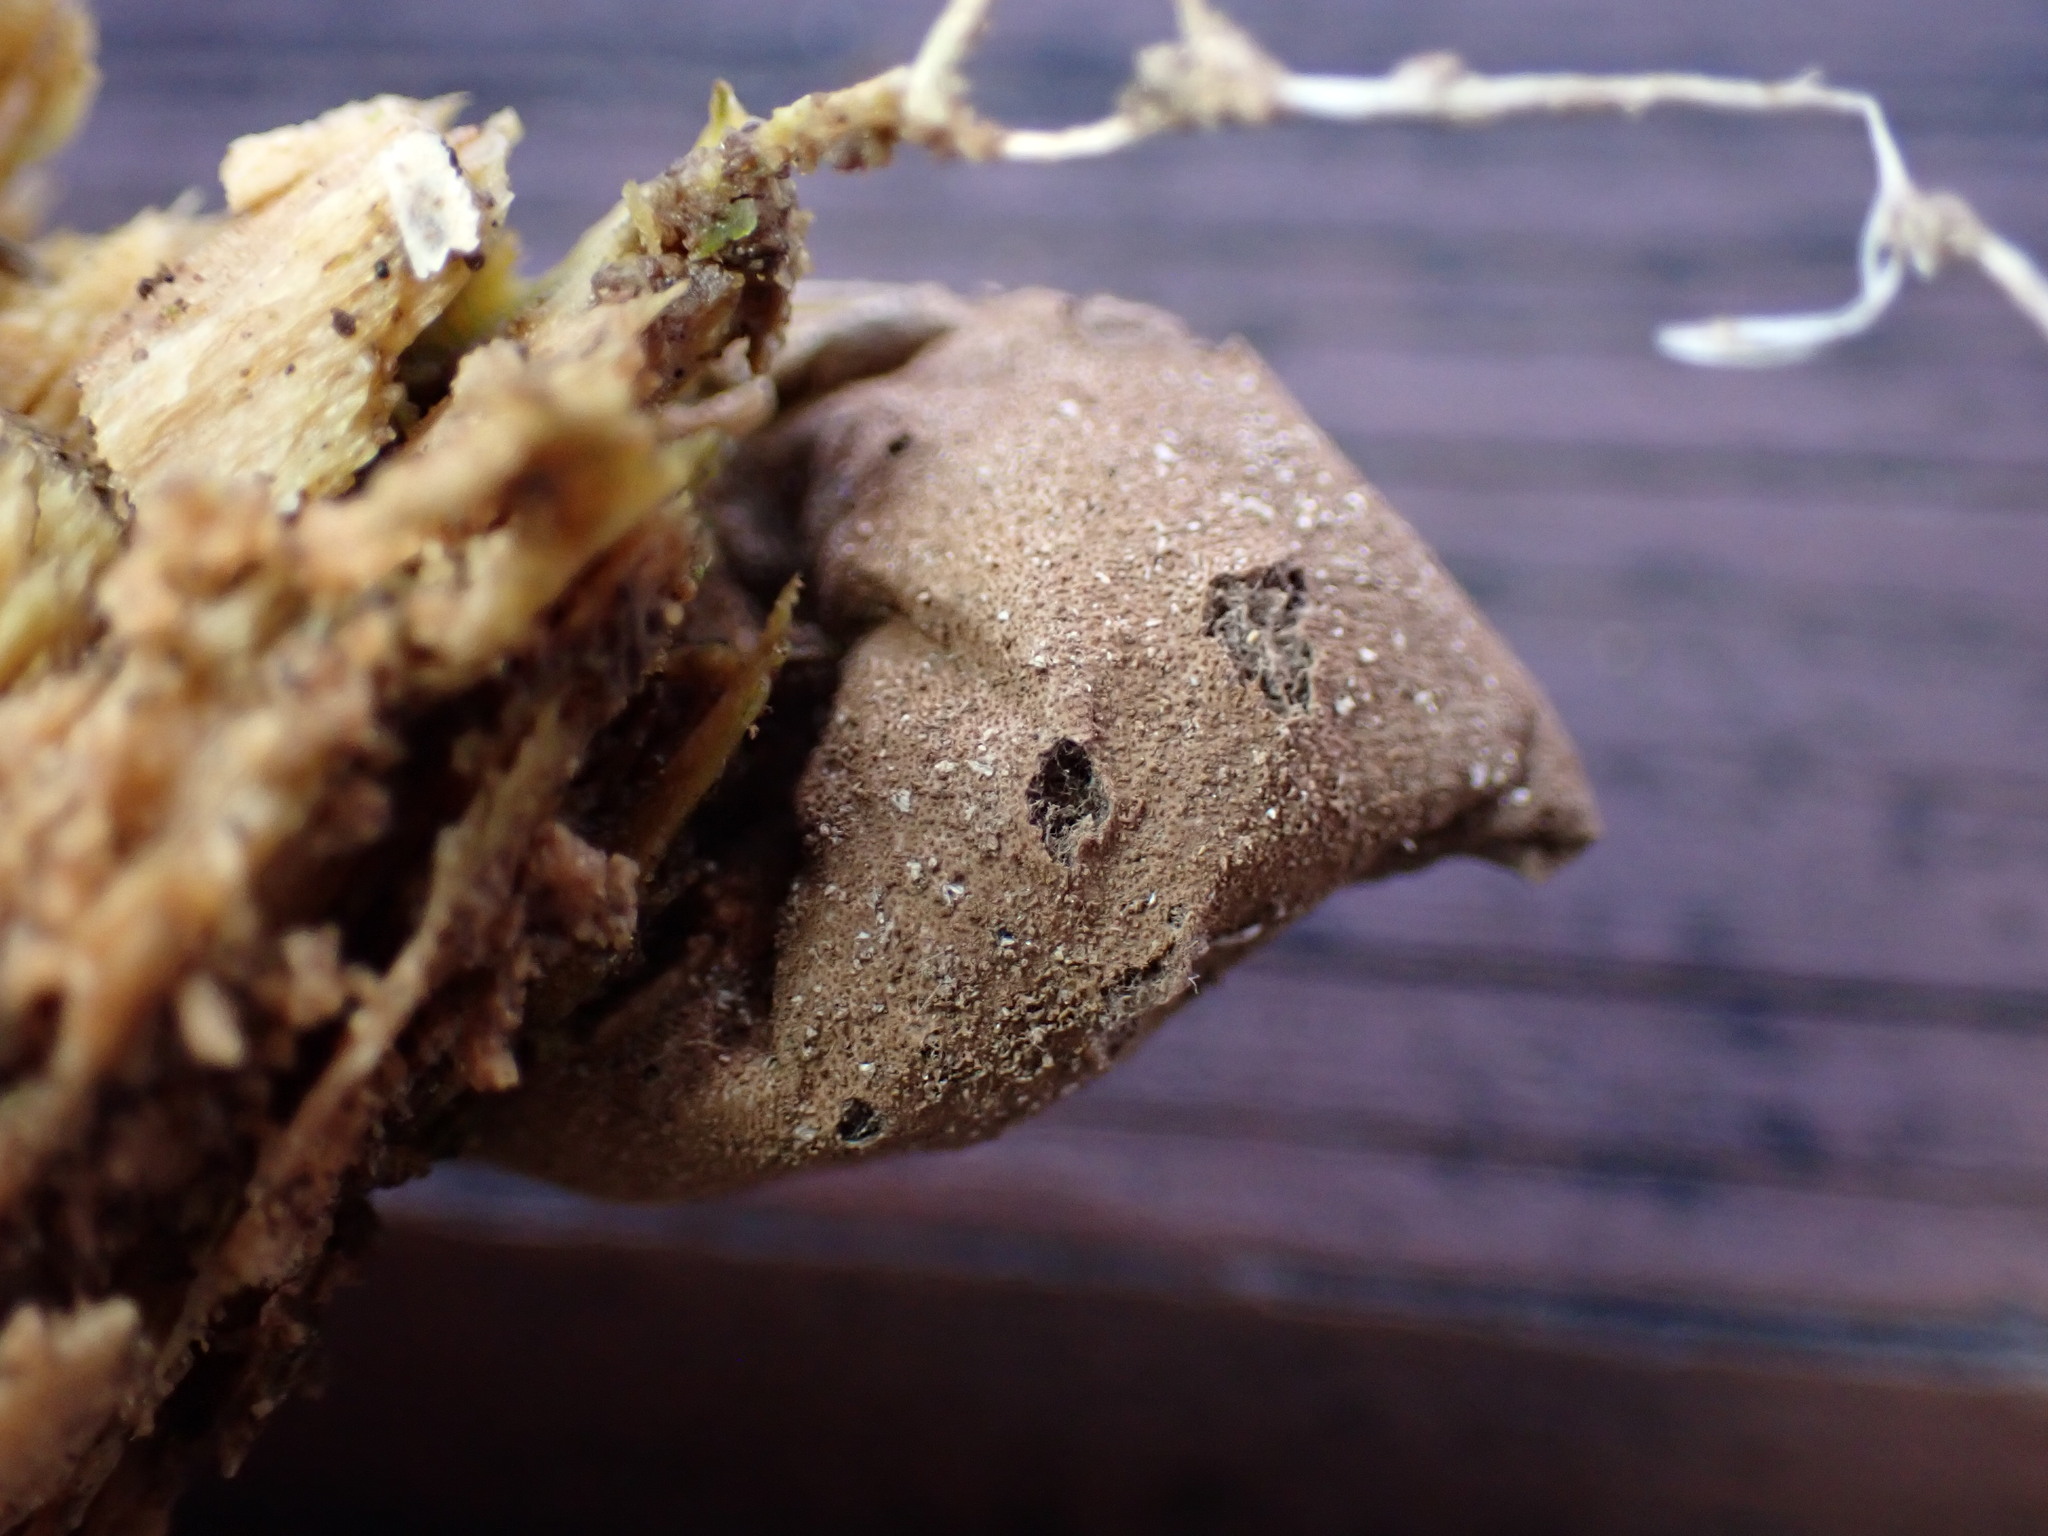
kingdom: Fungi
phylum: Basidiomycota
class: Agaricomycetes
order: Agaricales
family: Lycoperdaceae
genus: Apioperdon
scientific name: Apioperdon pyriforme
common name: Pear-shaped puffball
